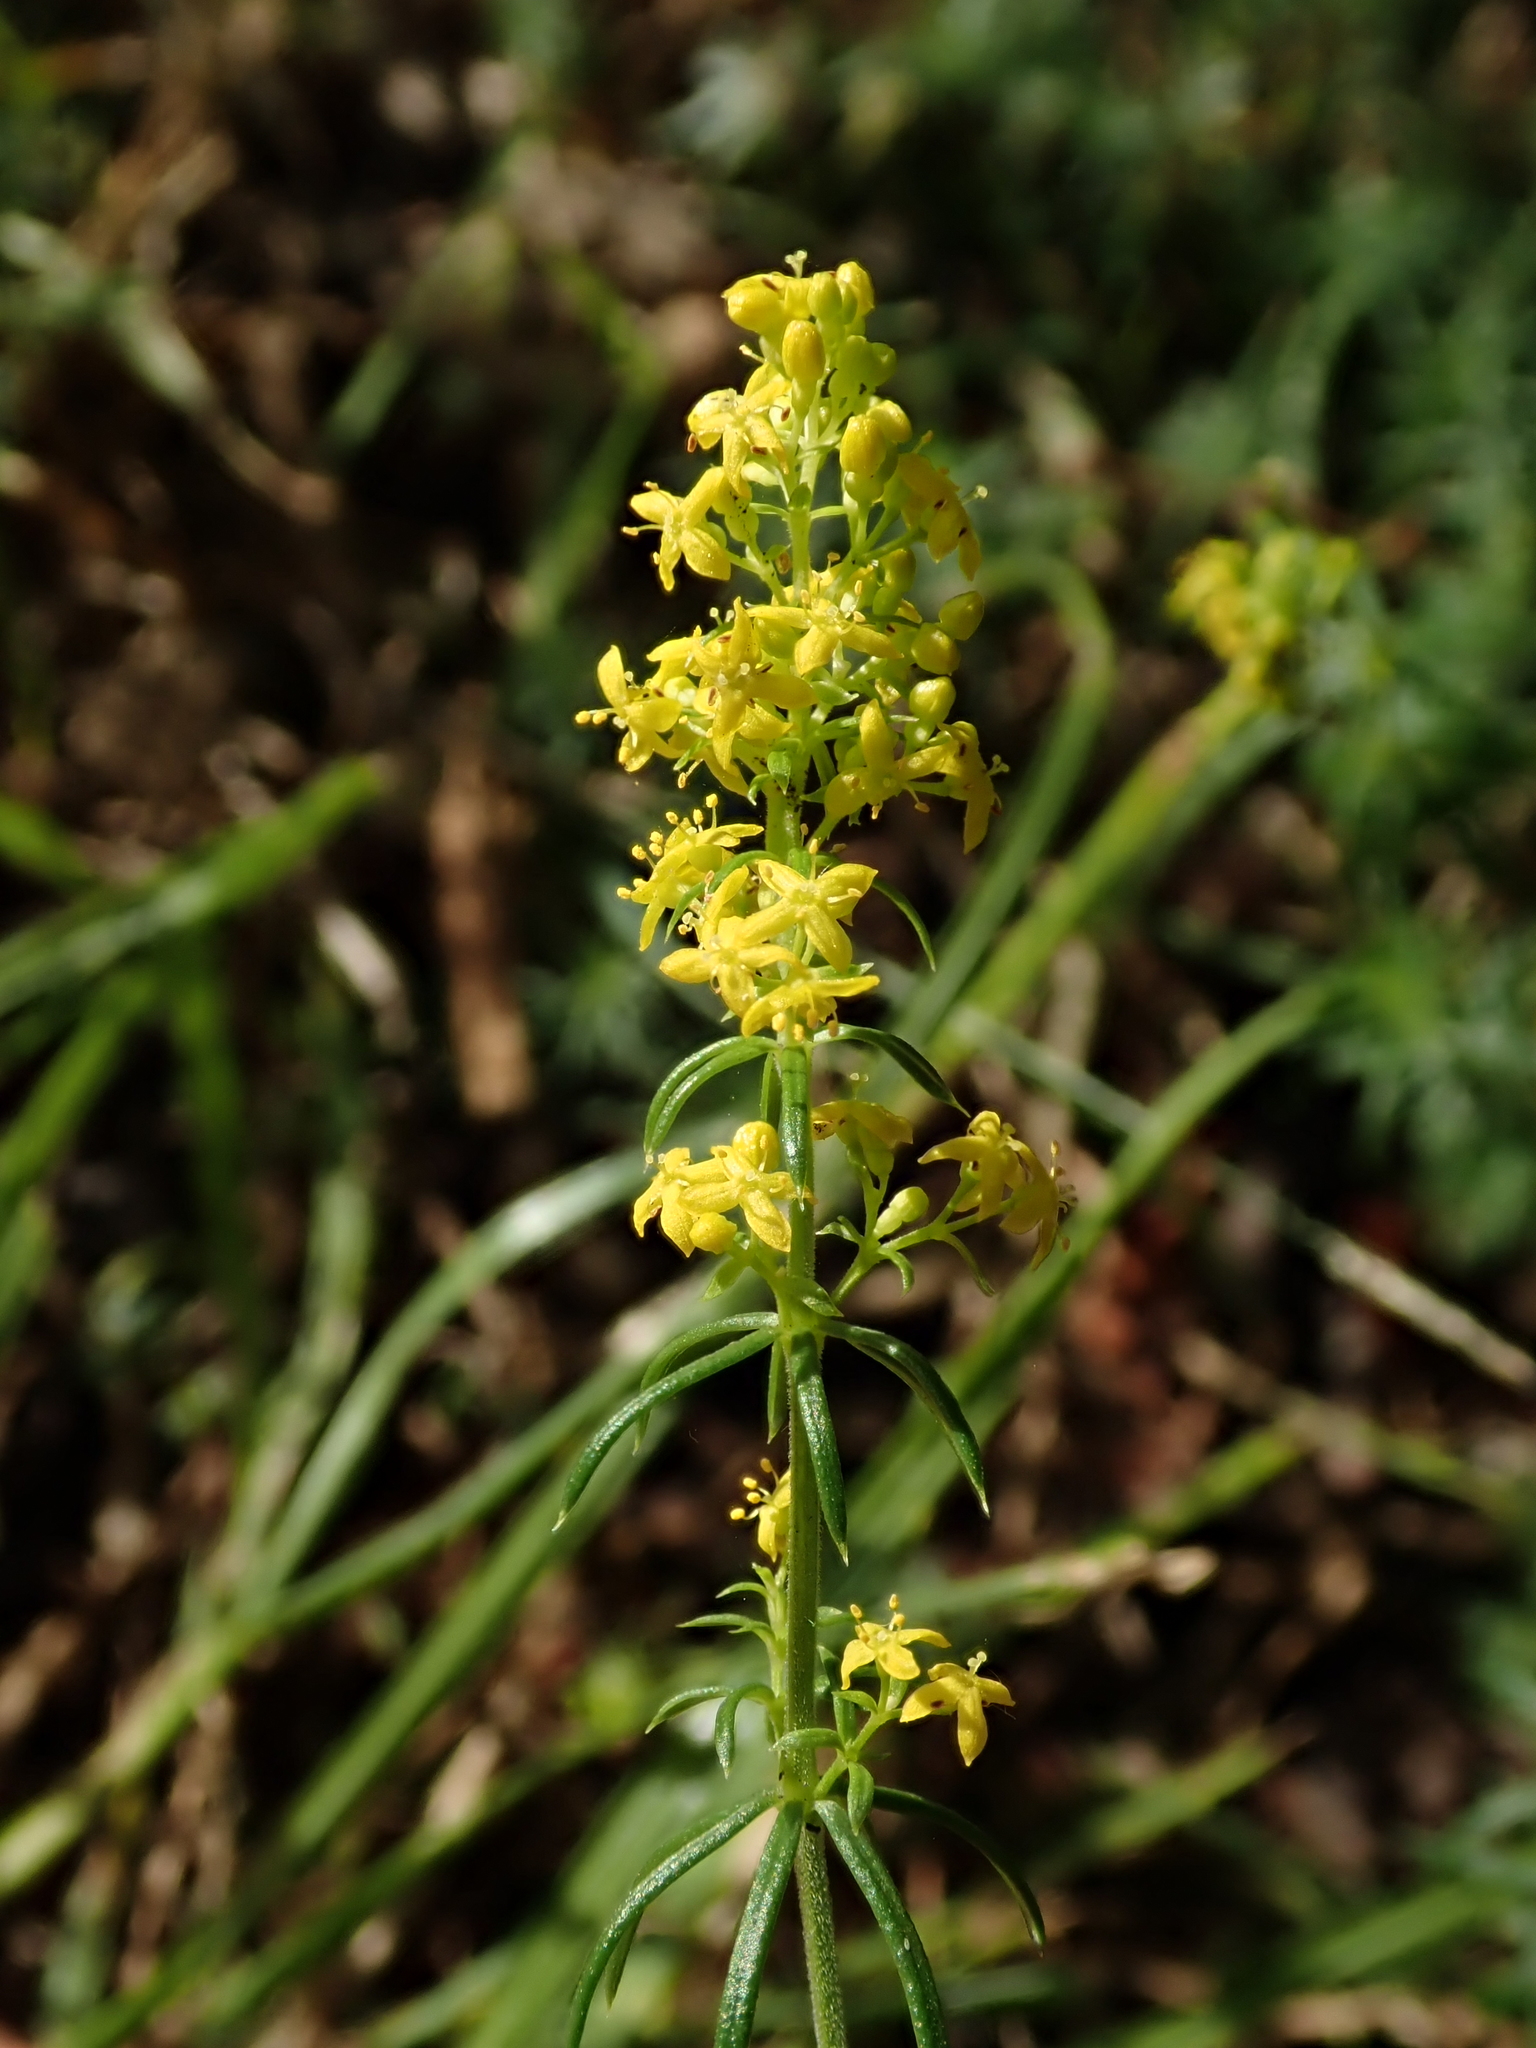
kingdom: Plantae
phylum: Tracheophyta
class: Magnoliopsida
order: Gentianales
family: Rubiaceae
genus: Galium
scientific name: Galium verum
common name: Lady's bedstraw
